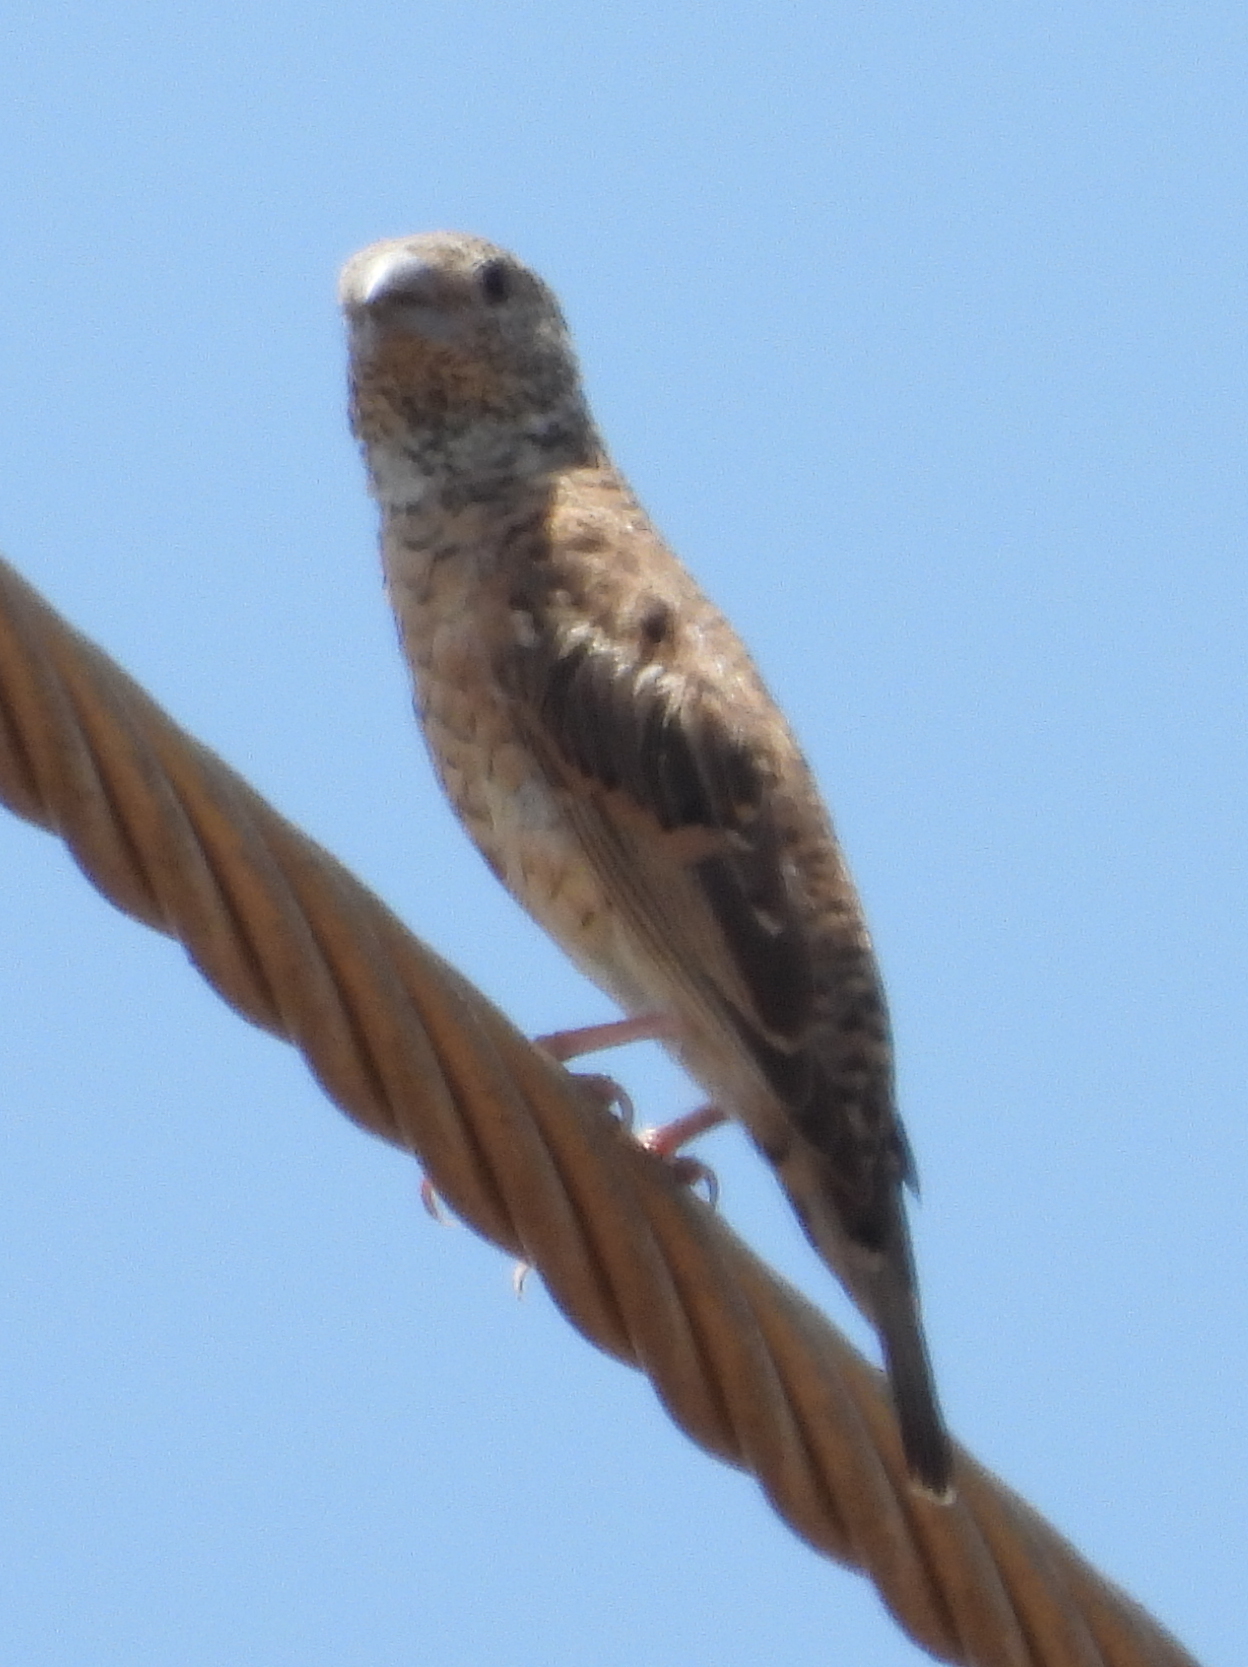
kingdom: Animalia
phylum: Chordata
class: Aves
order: Passeriformes
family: Estrildidae
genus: Amadina
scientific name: Amadina fasciata
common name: Cut-throat finch
